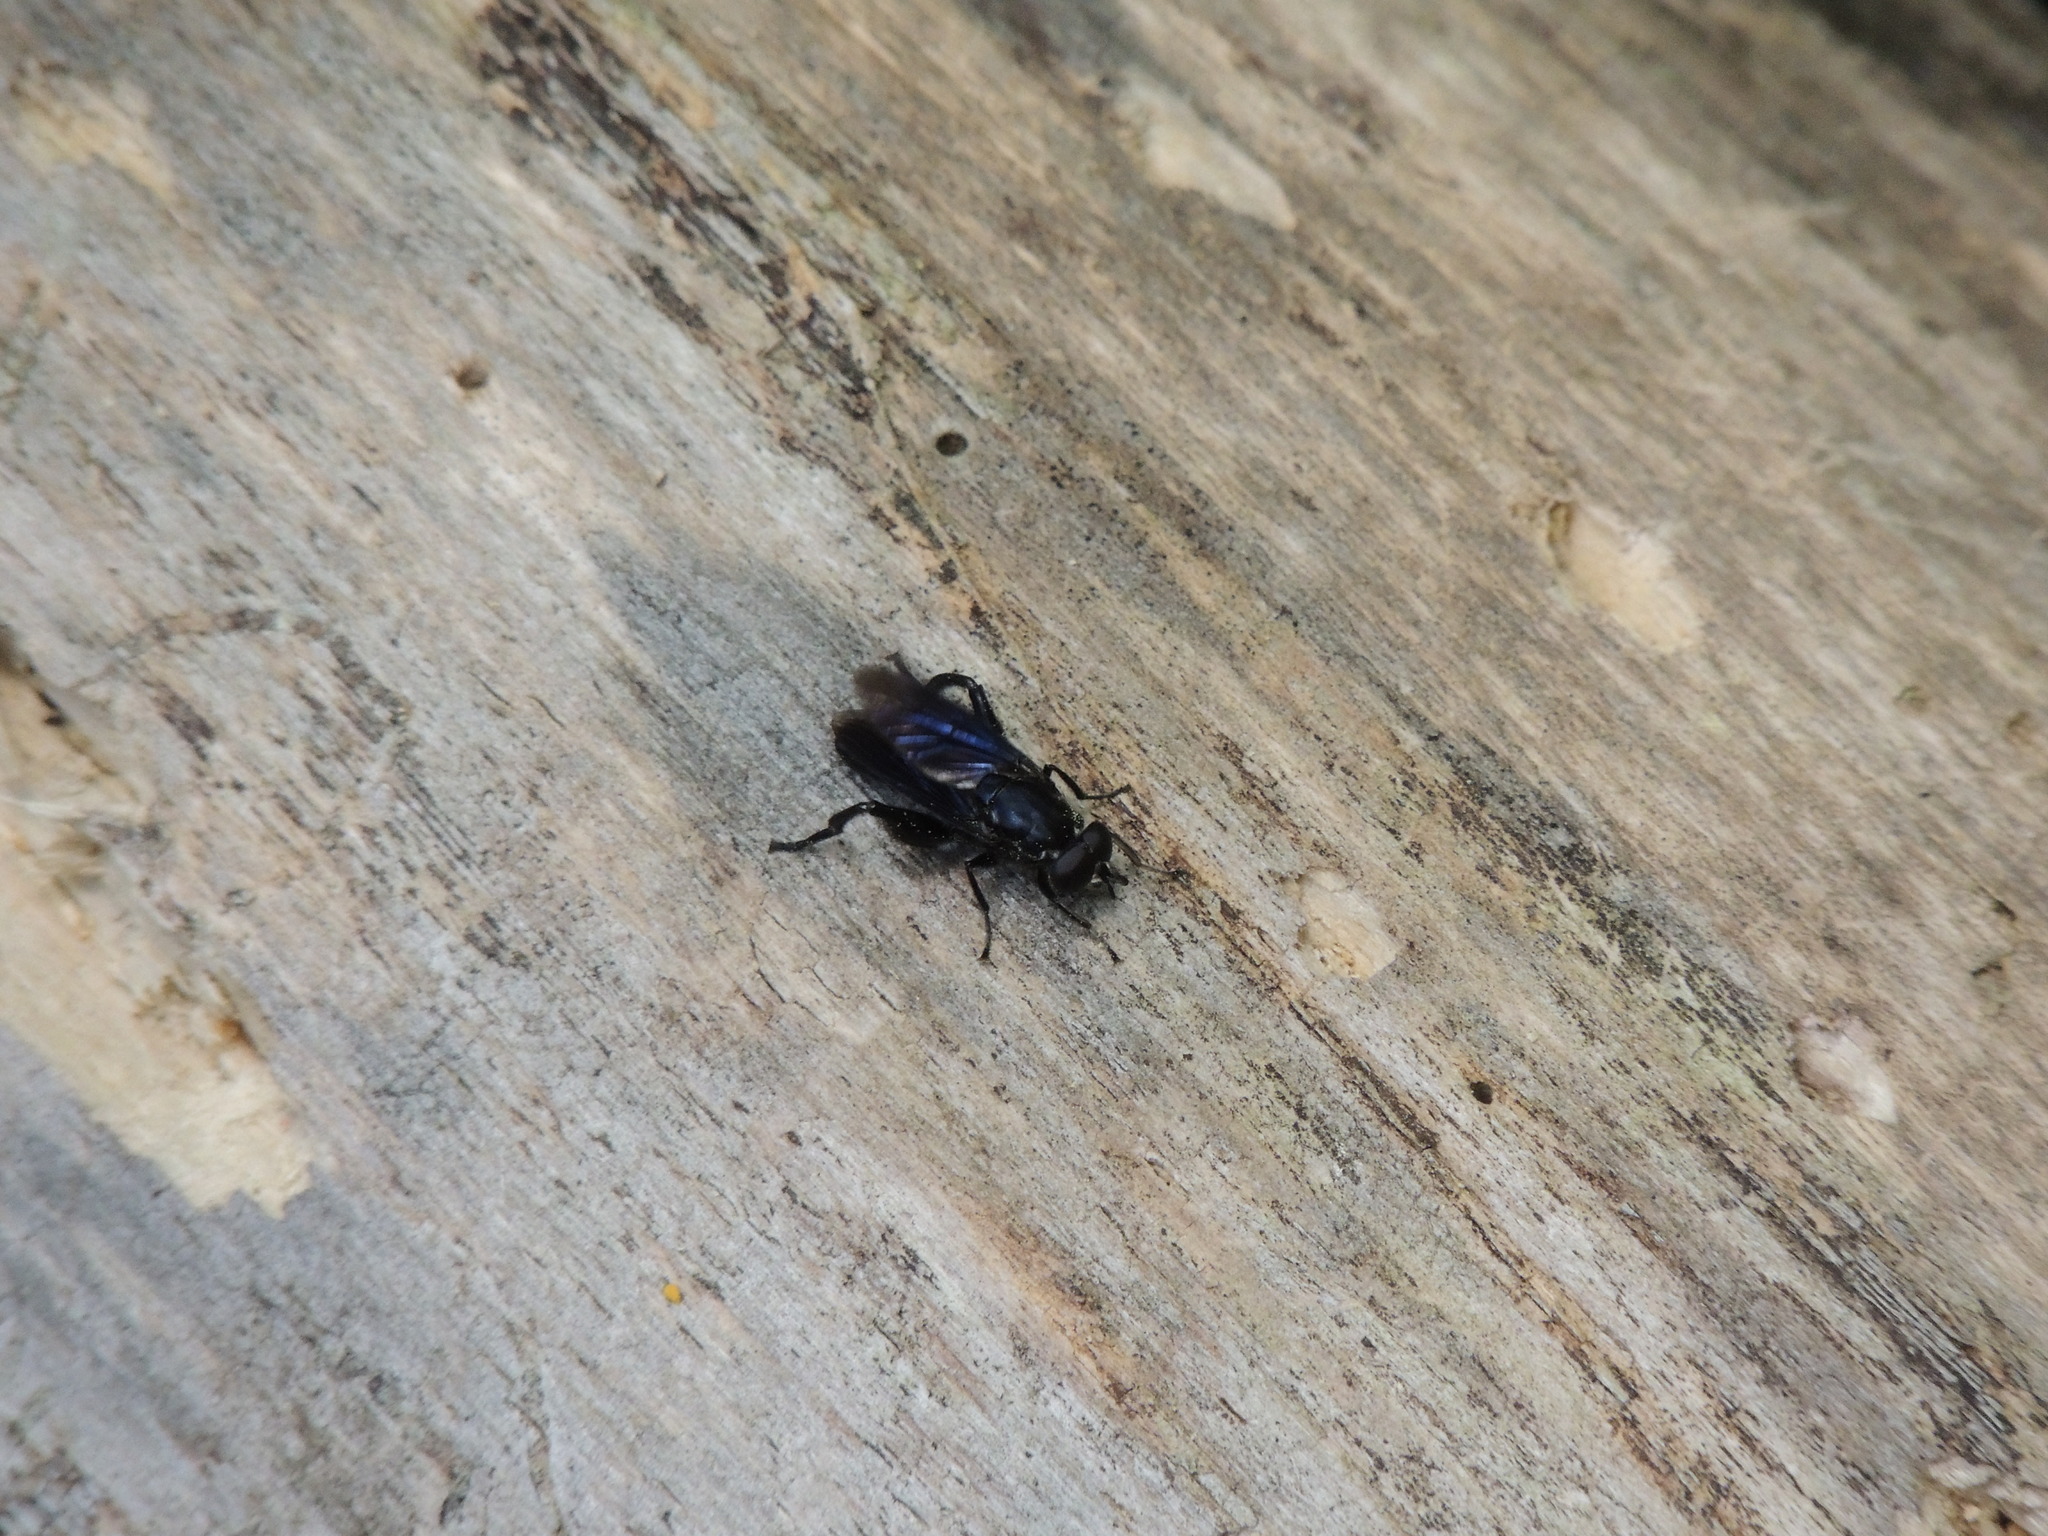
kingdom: Animalia
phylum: Arthropoda
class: Insecta
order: Diptera
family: Syrphidae
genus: Chalcosyrphus
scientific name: Chalcosyrphus chalybeus
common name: Violet leafwalker
